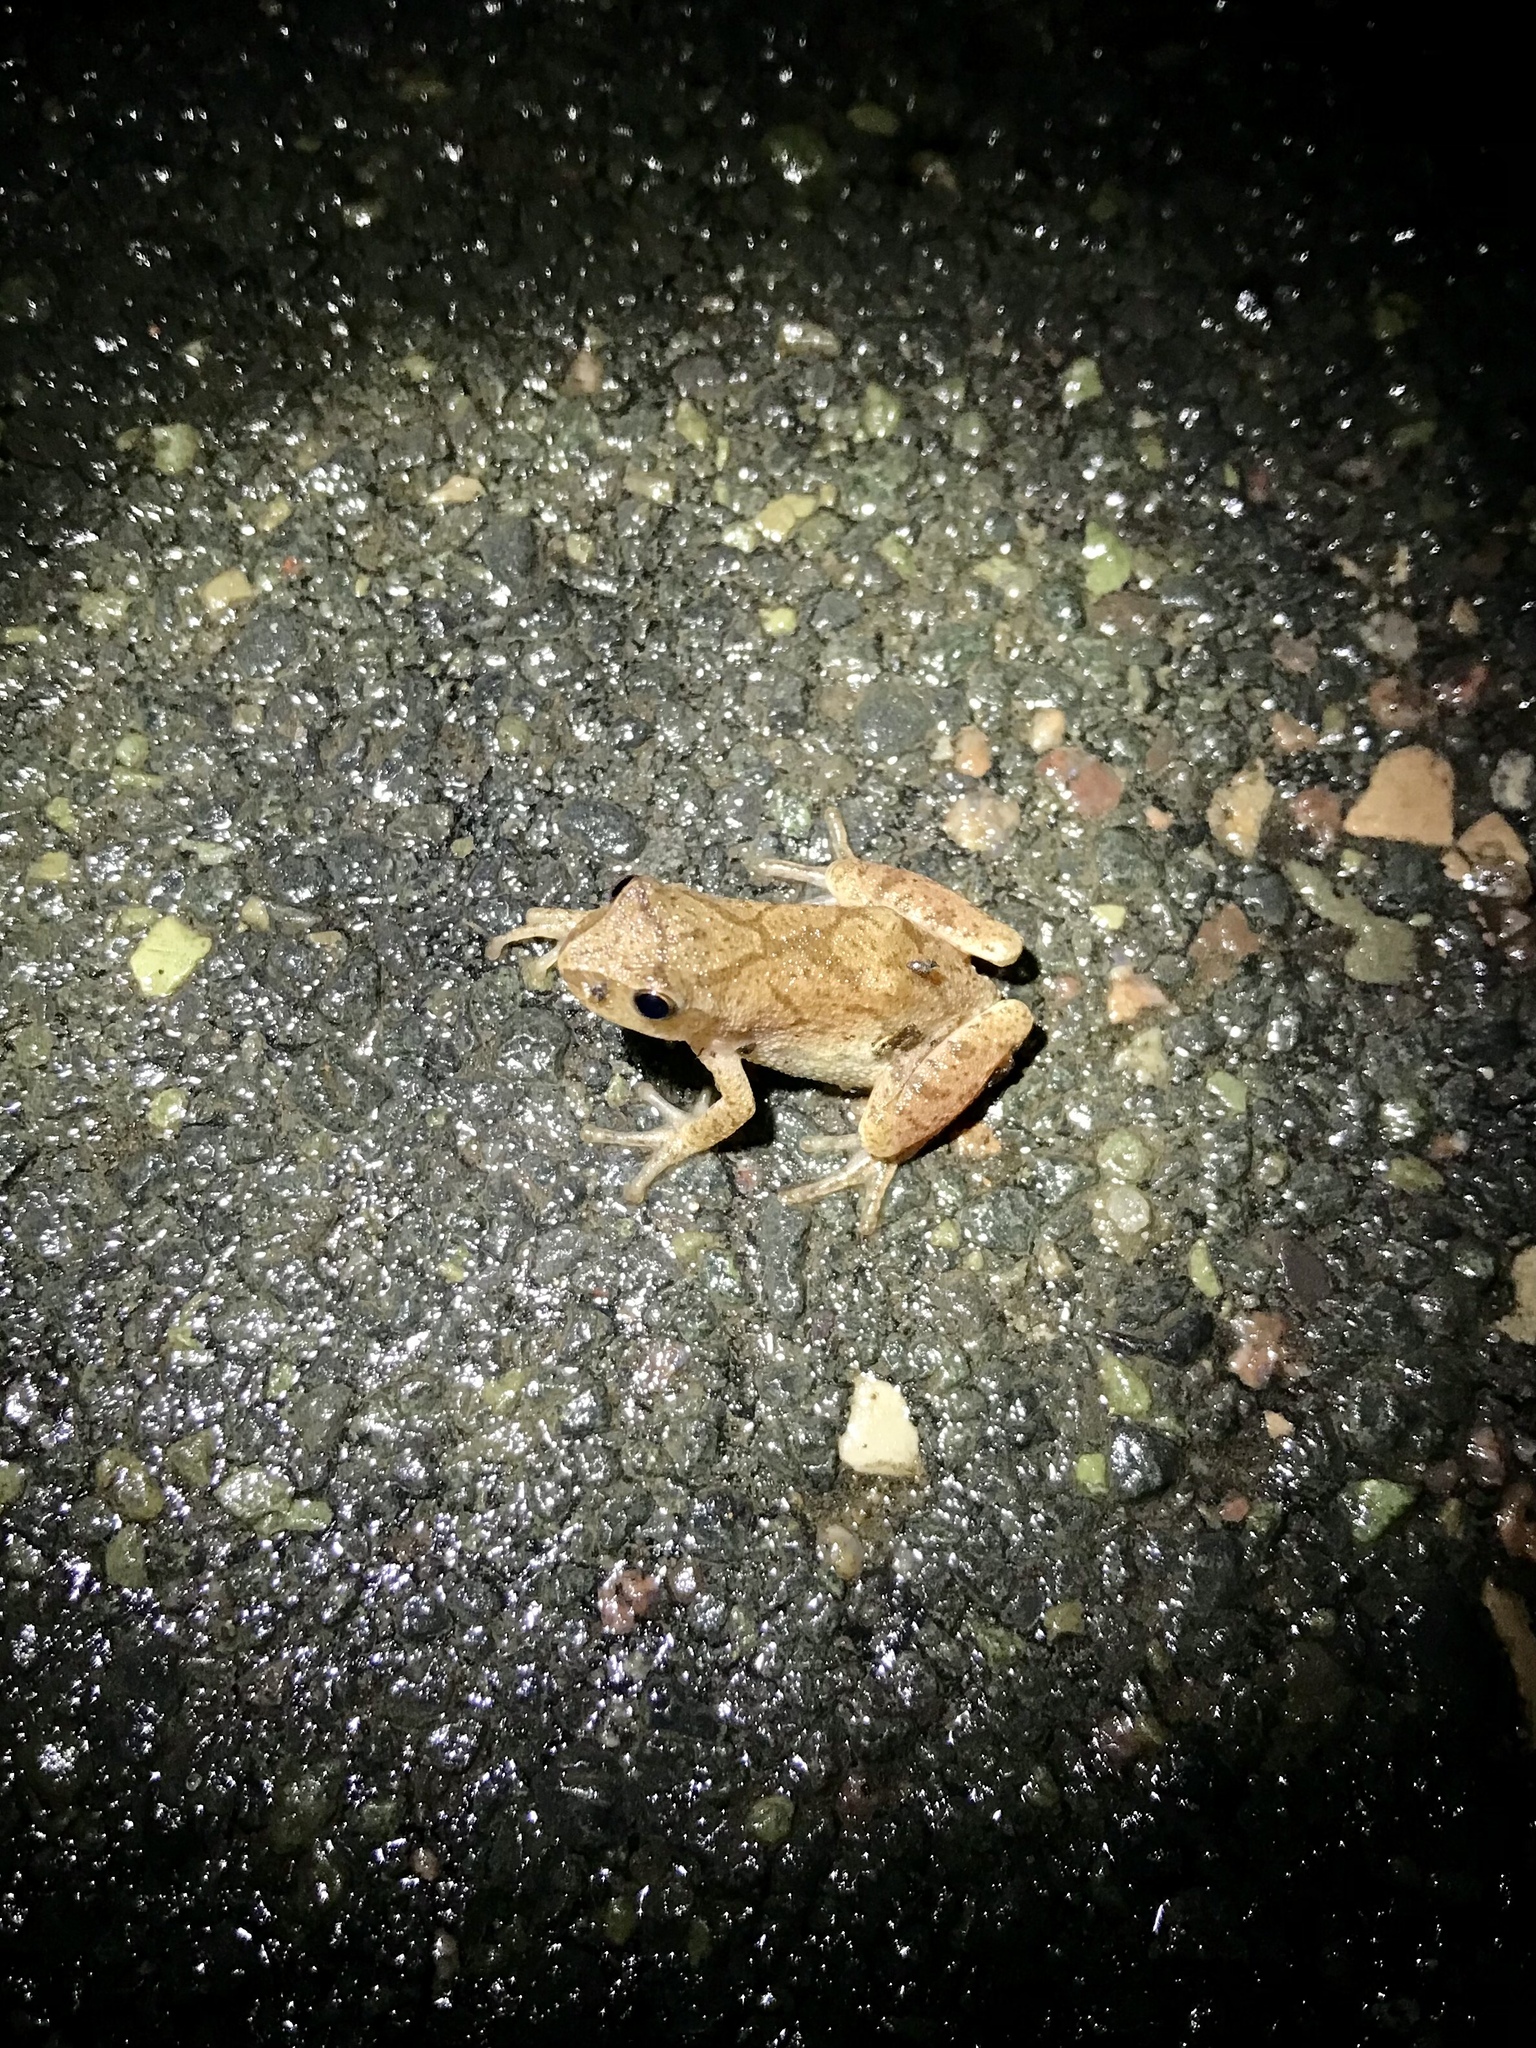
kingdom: Animalia
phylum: Chordata
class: Amphibia
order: Anura
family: Hylidae
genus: Pseudacris
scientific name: Pseudacris crucifer
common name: Spring peeper
